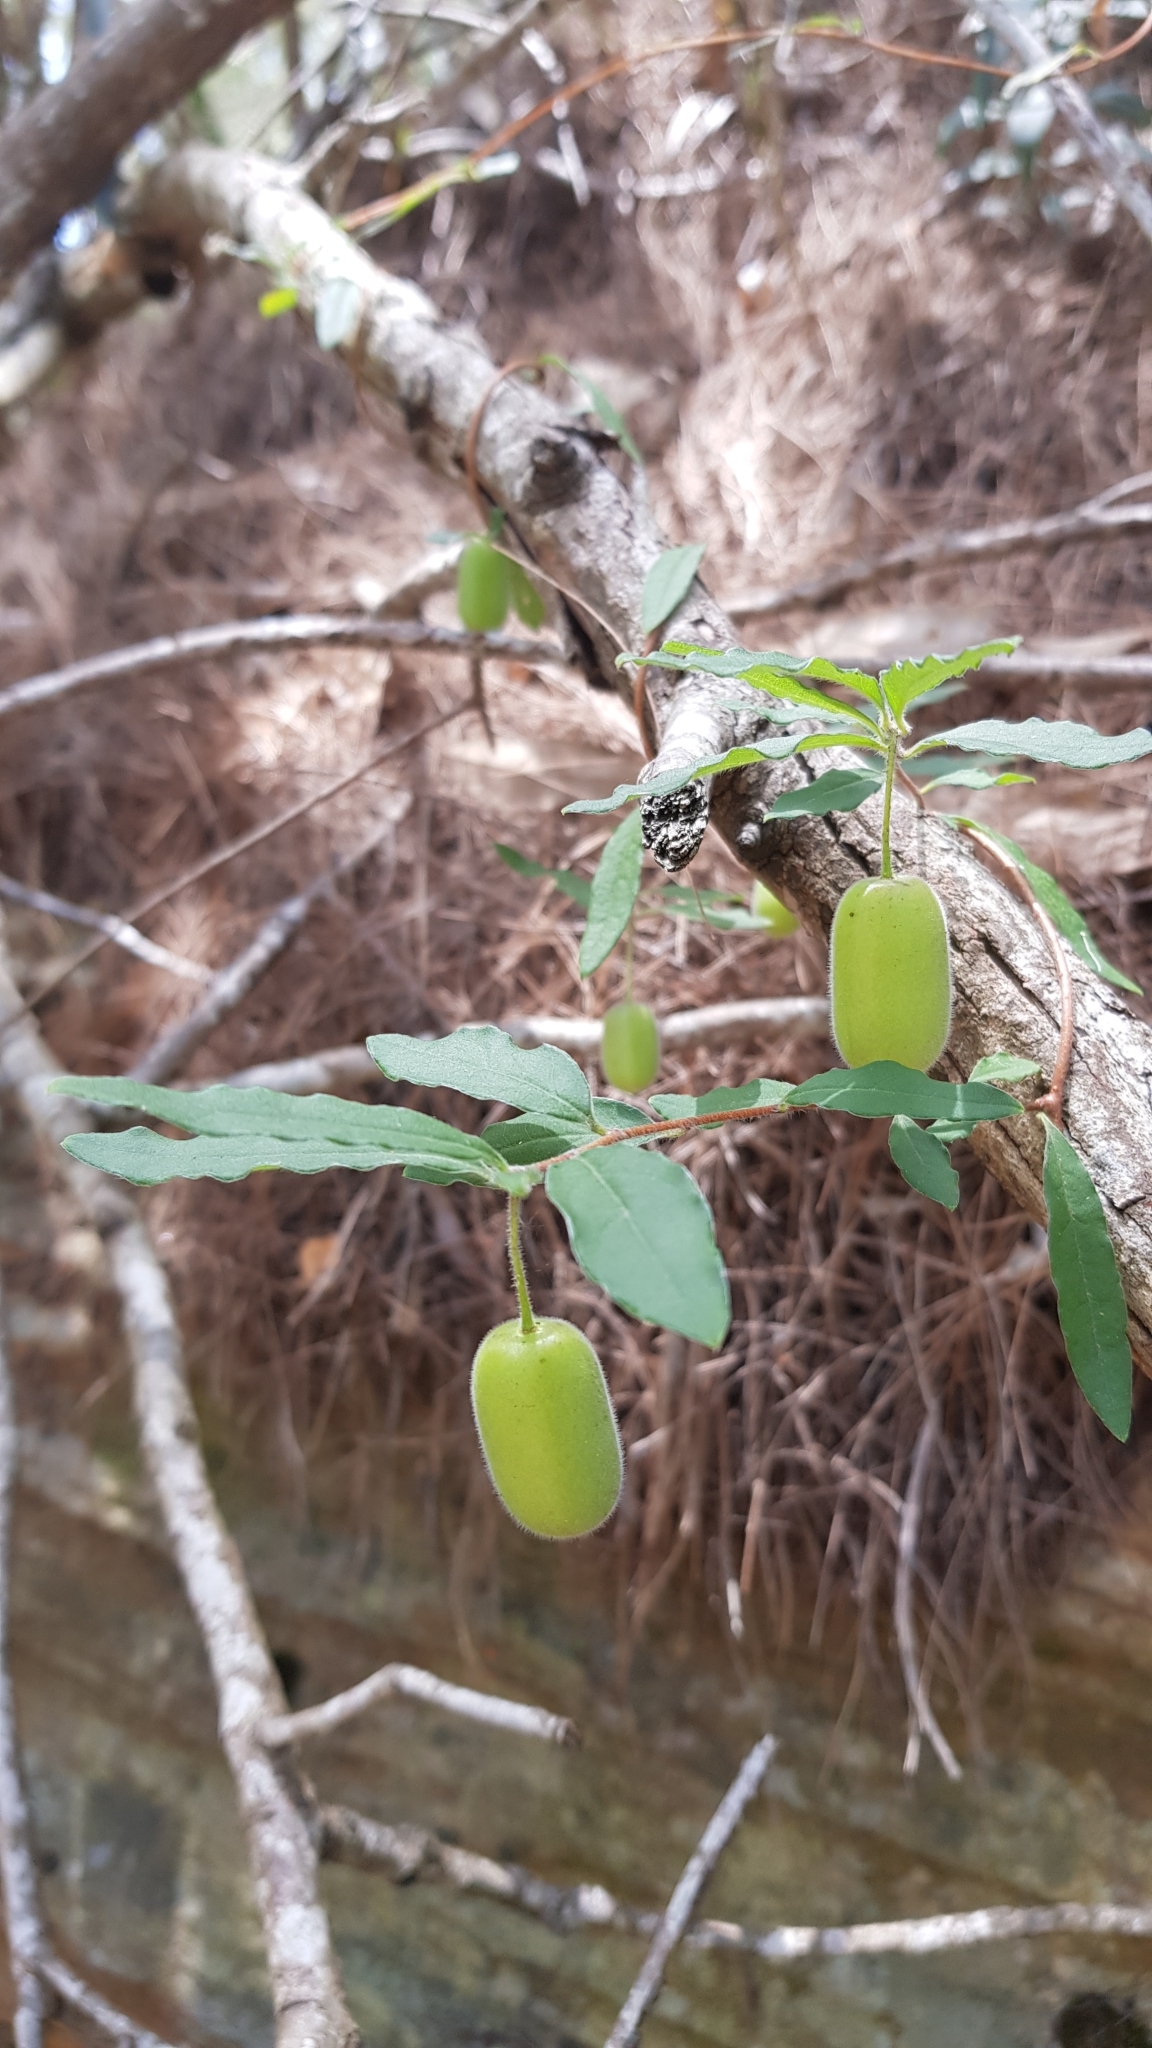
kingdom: Plantae
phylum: Tracheophyta
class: Magnoliopsida
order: Apiales
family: Pittosporaceae
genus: Billardiera
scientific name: Billardiera scandens
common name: Apple-berry
